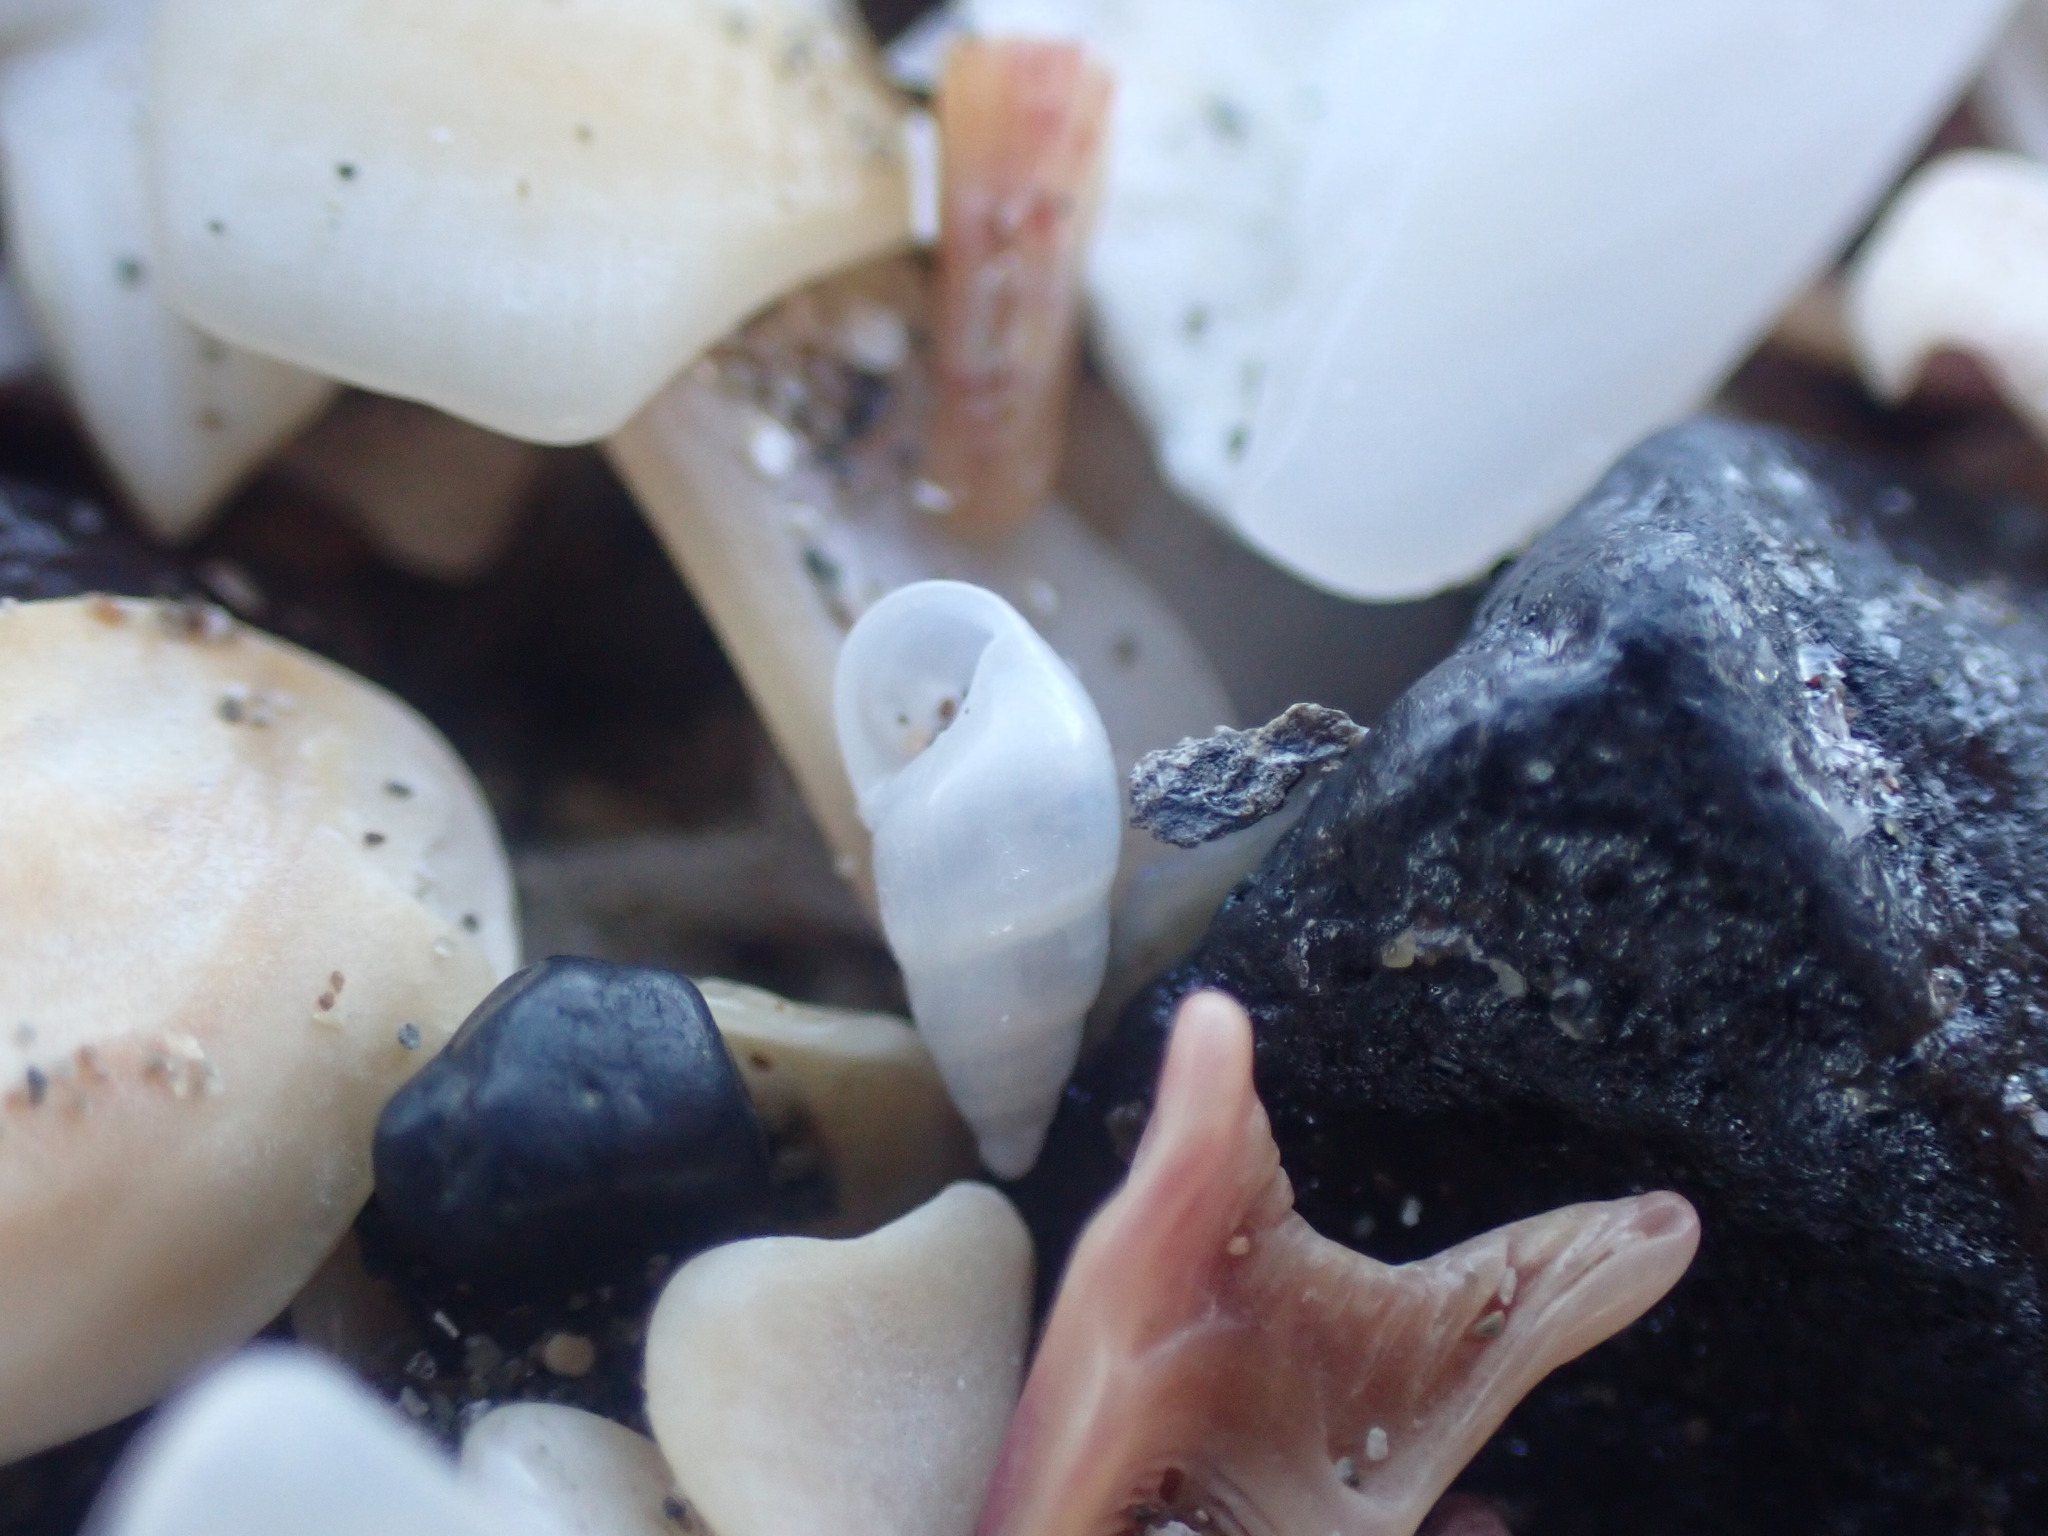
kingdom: Animalia
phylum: Mollusca
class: Gastropoda
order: Littorinimorpha
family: Rissoinidae
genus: Rissoina
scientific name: Rissoina chathamensis
